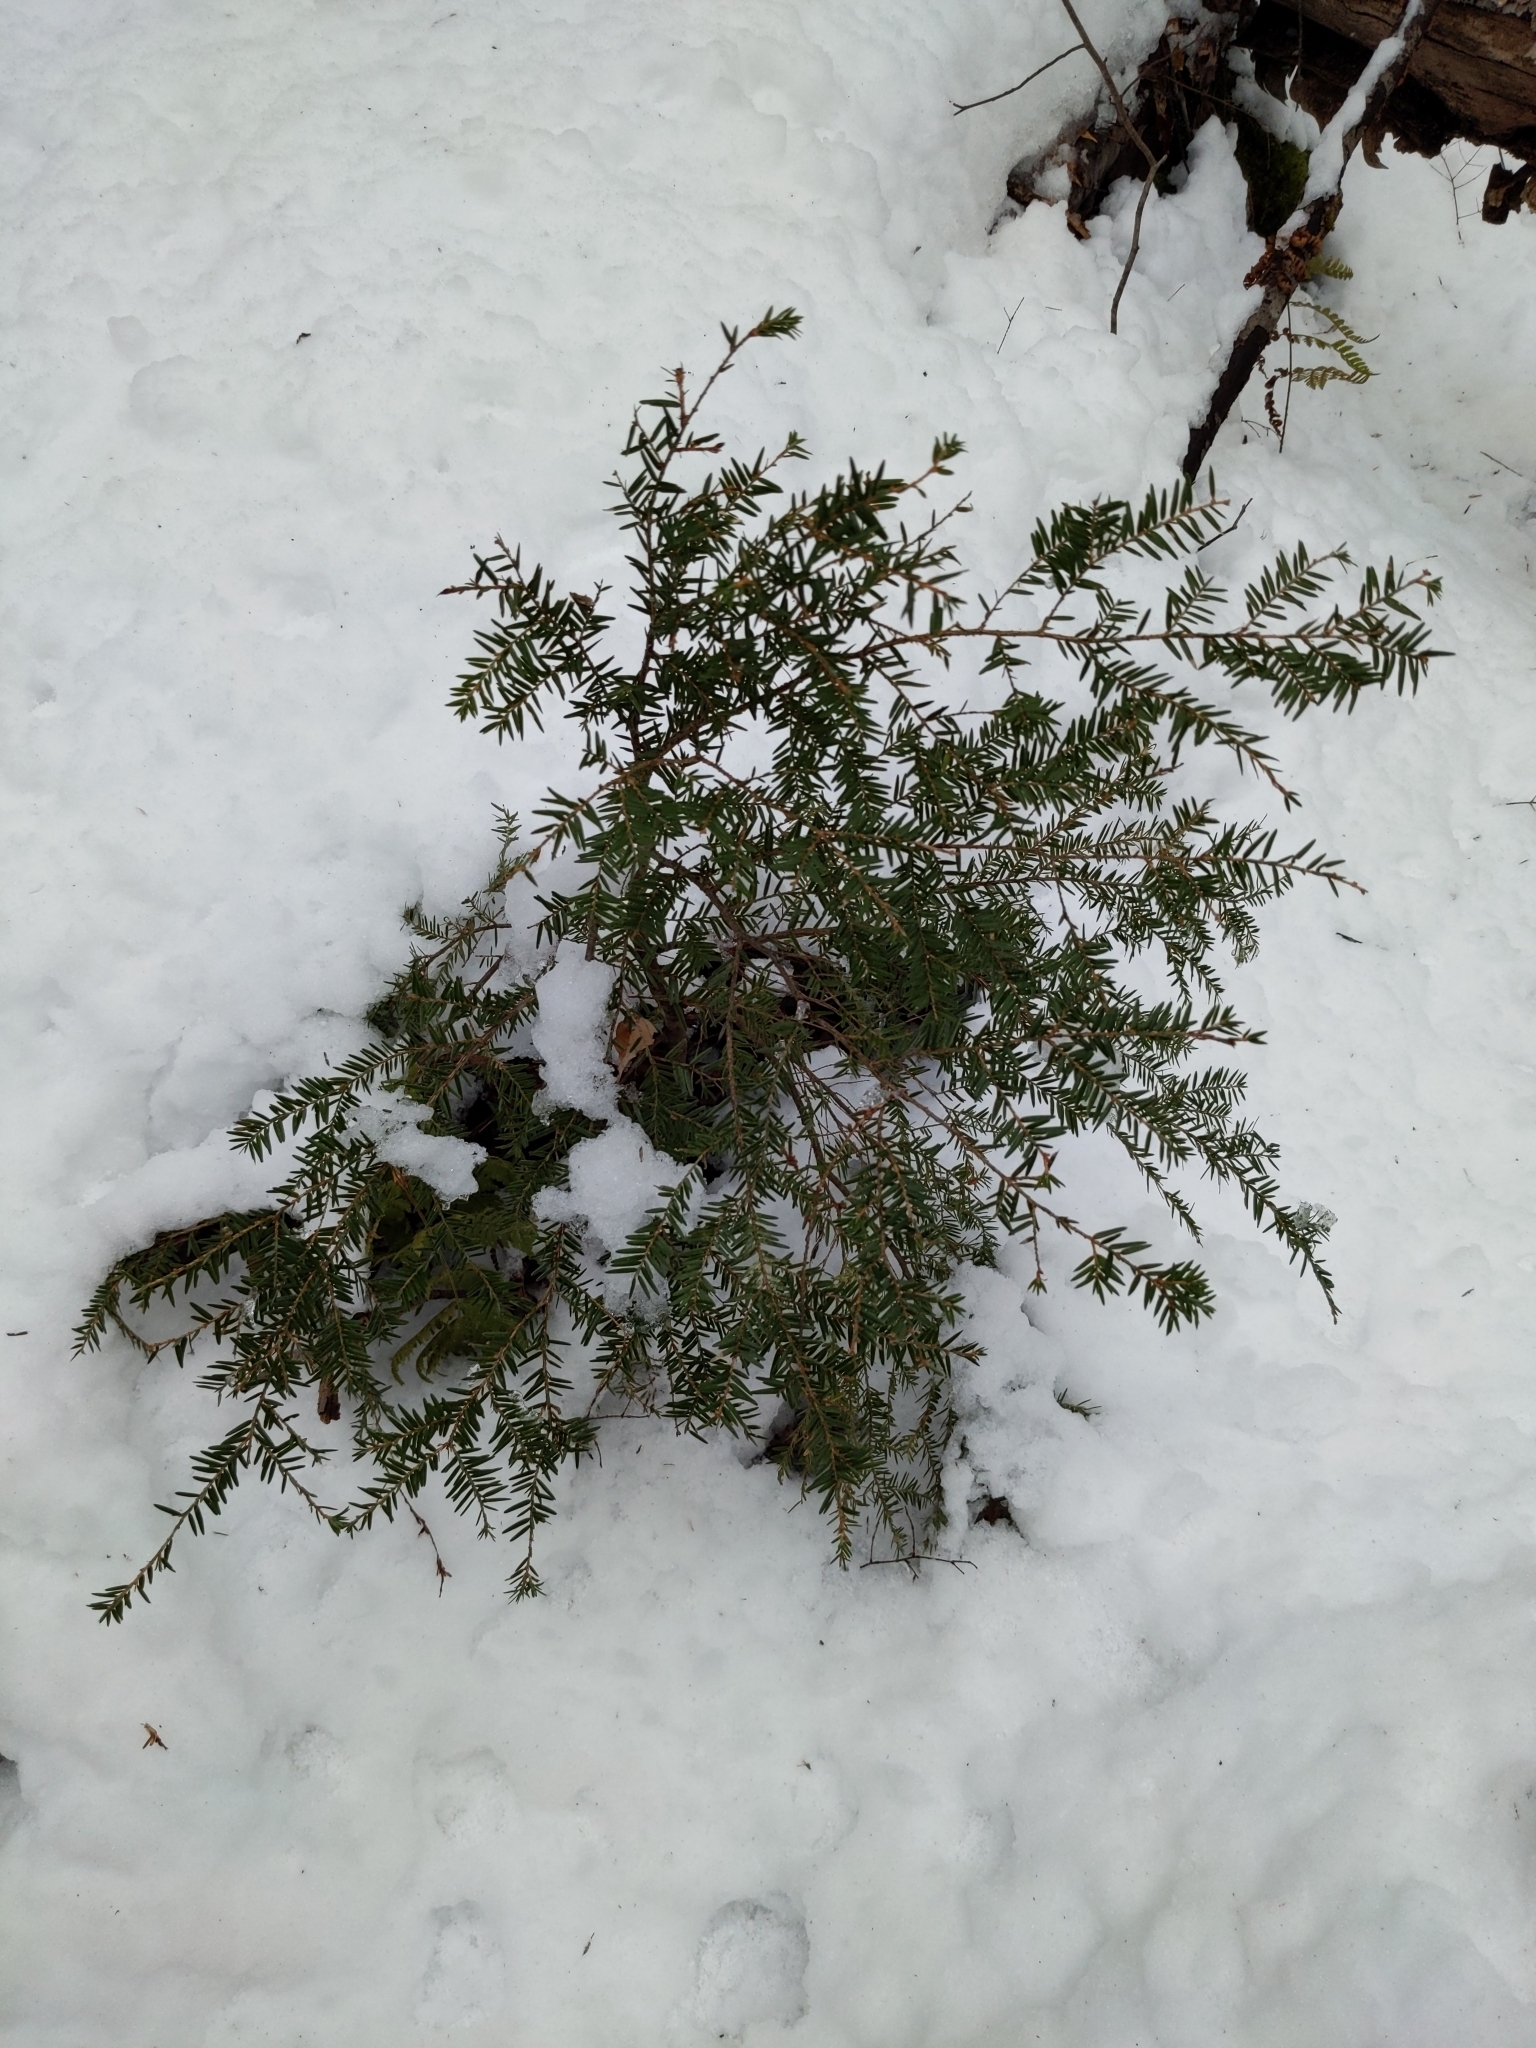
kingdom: Plantae
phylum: Tracheophyta
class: Pinopsida
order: Pinales
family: Pinaceae
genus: Tsuga
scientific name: Tsuga canadensis
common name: Eastern hemlock
